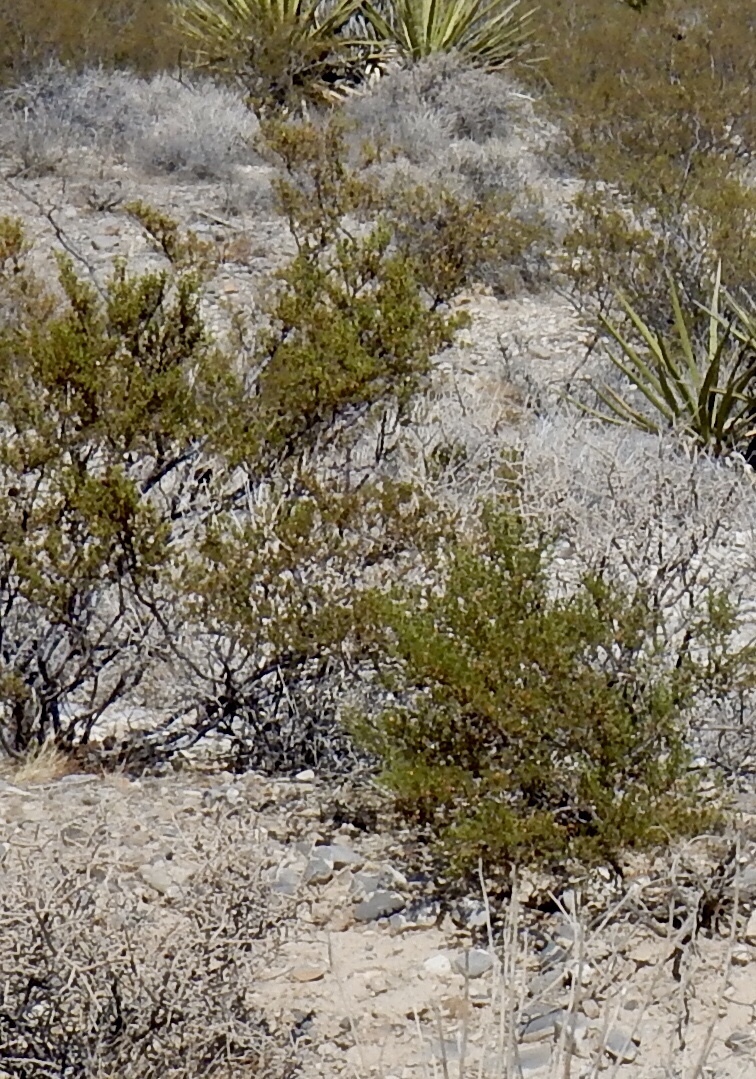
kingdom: Plantae
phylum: Tracheophyta
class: Magnoliopsida
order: Zygophyllales
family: Zygophyllaceae
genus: Larrea
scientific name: Larrea tridentata
